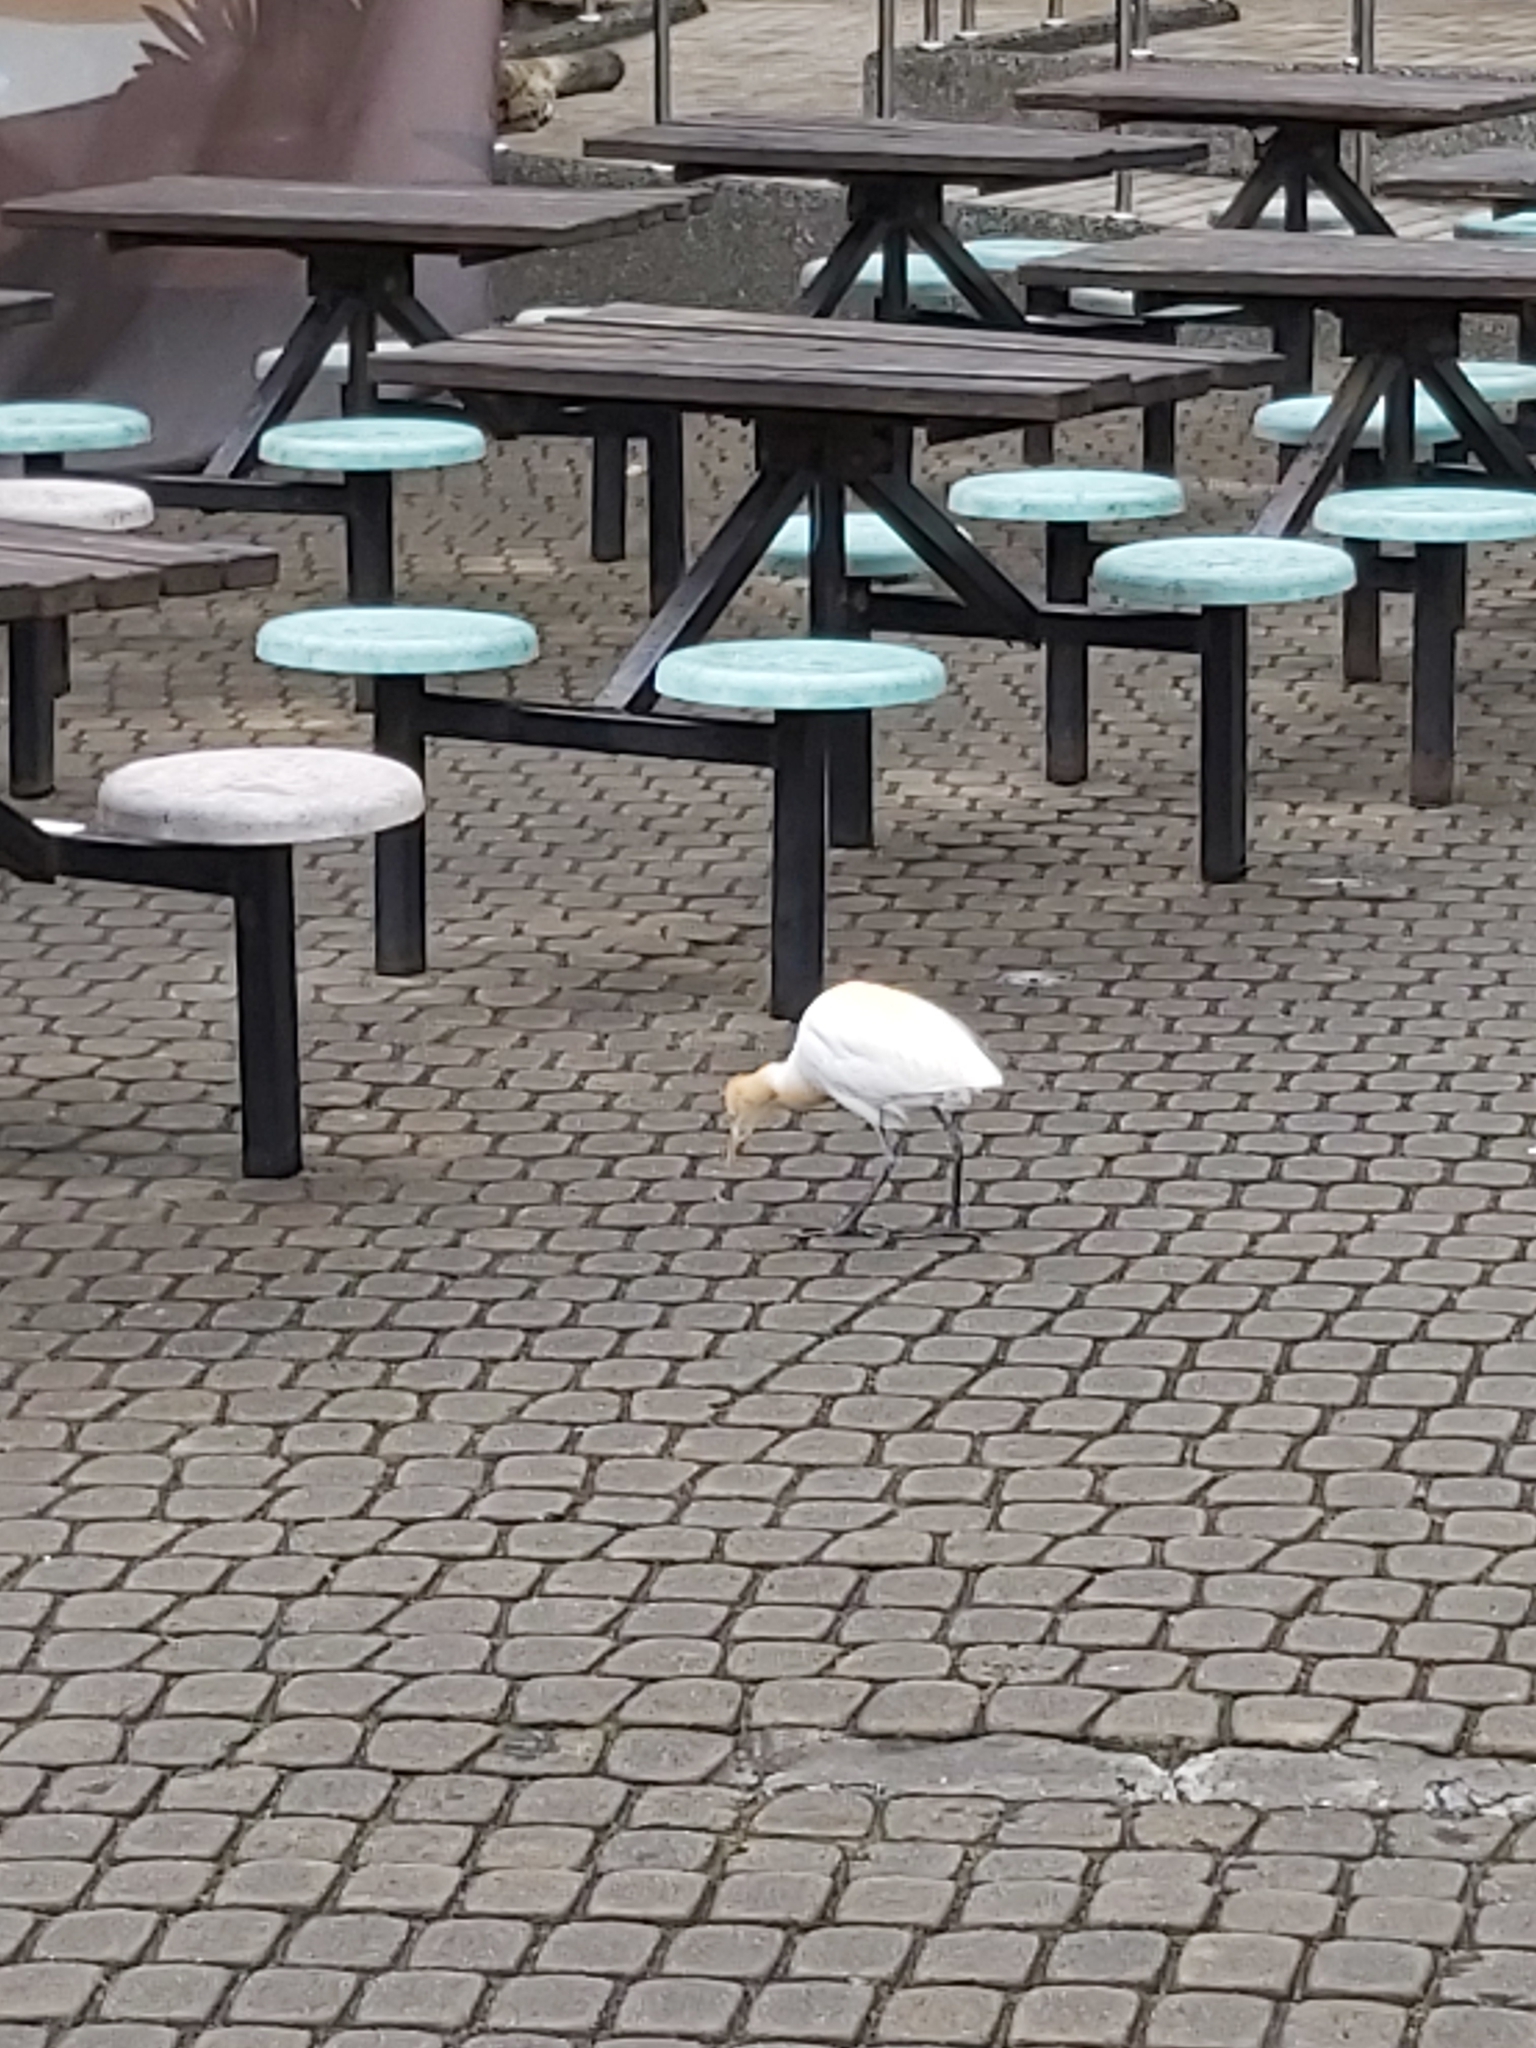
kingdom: Animalia
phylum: Chordata
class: Aves
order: Pelecaniformes
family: Ardeidae
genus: Bubulcus
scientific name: Bubulcus coromandus
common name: Eastern cattle egret
